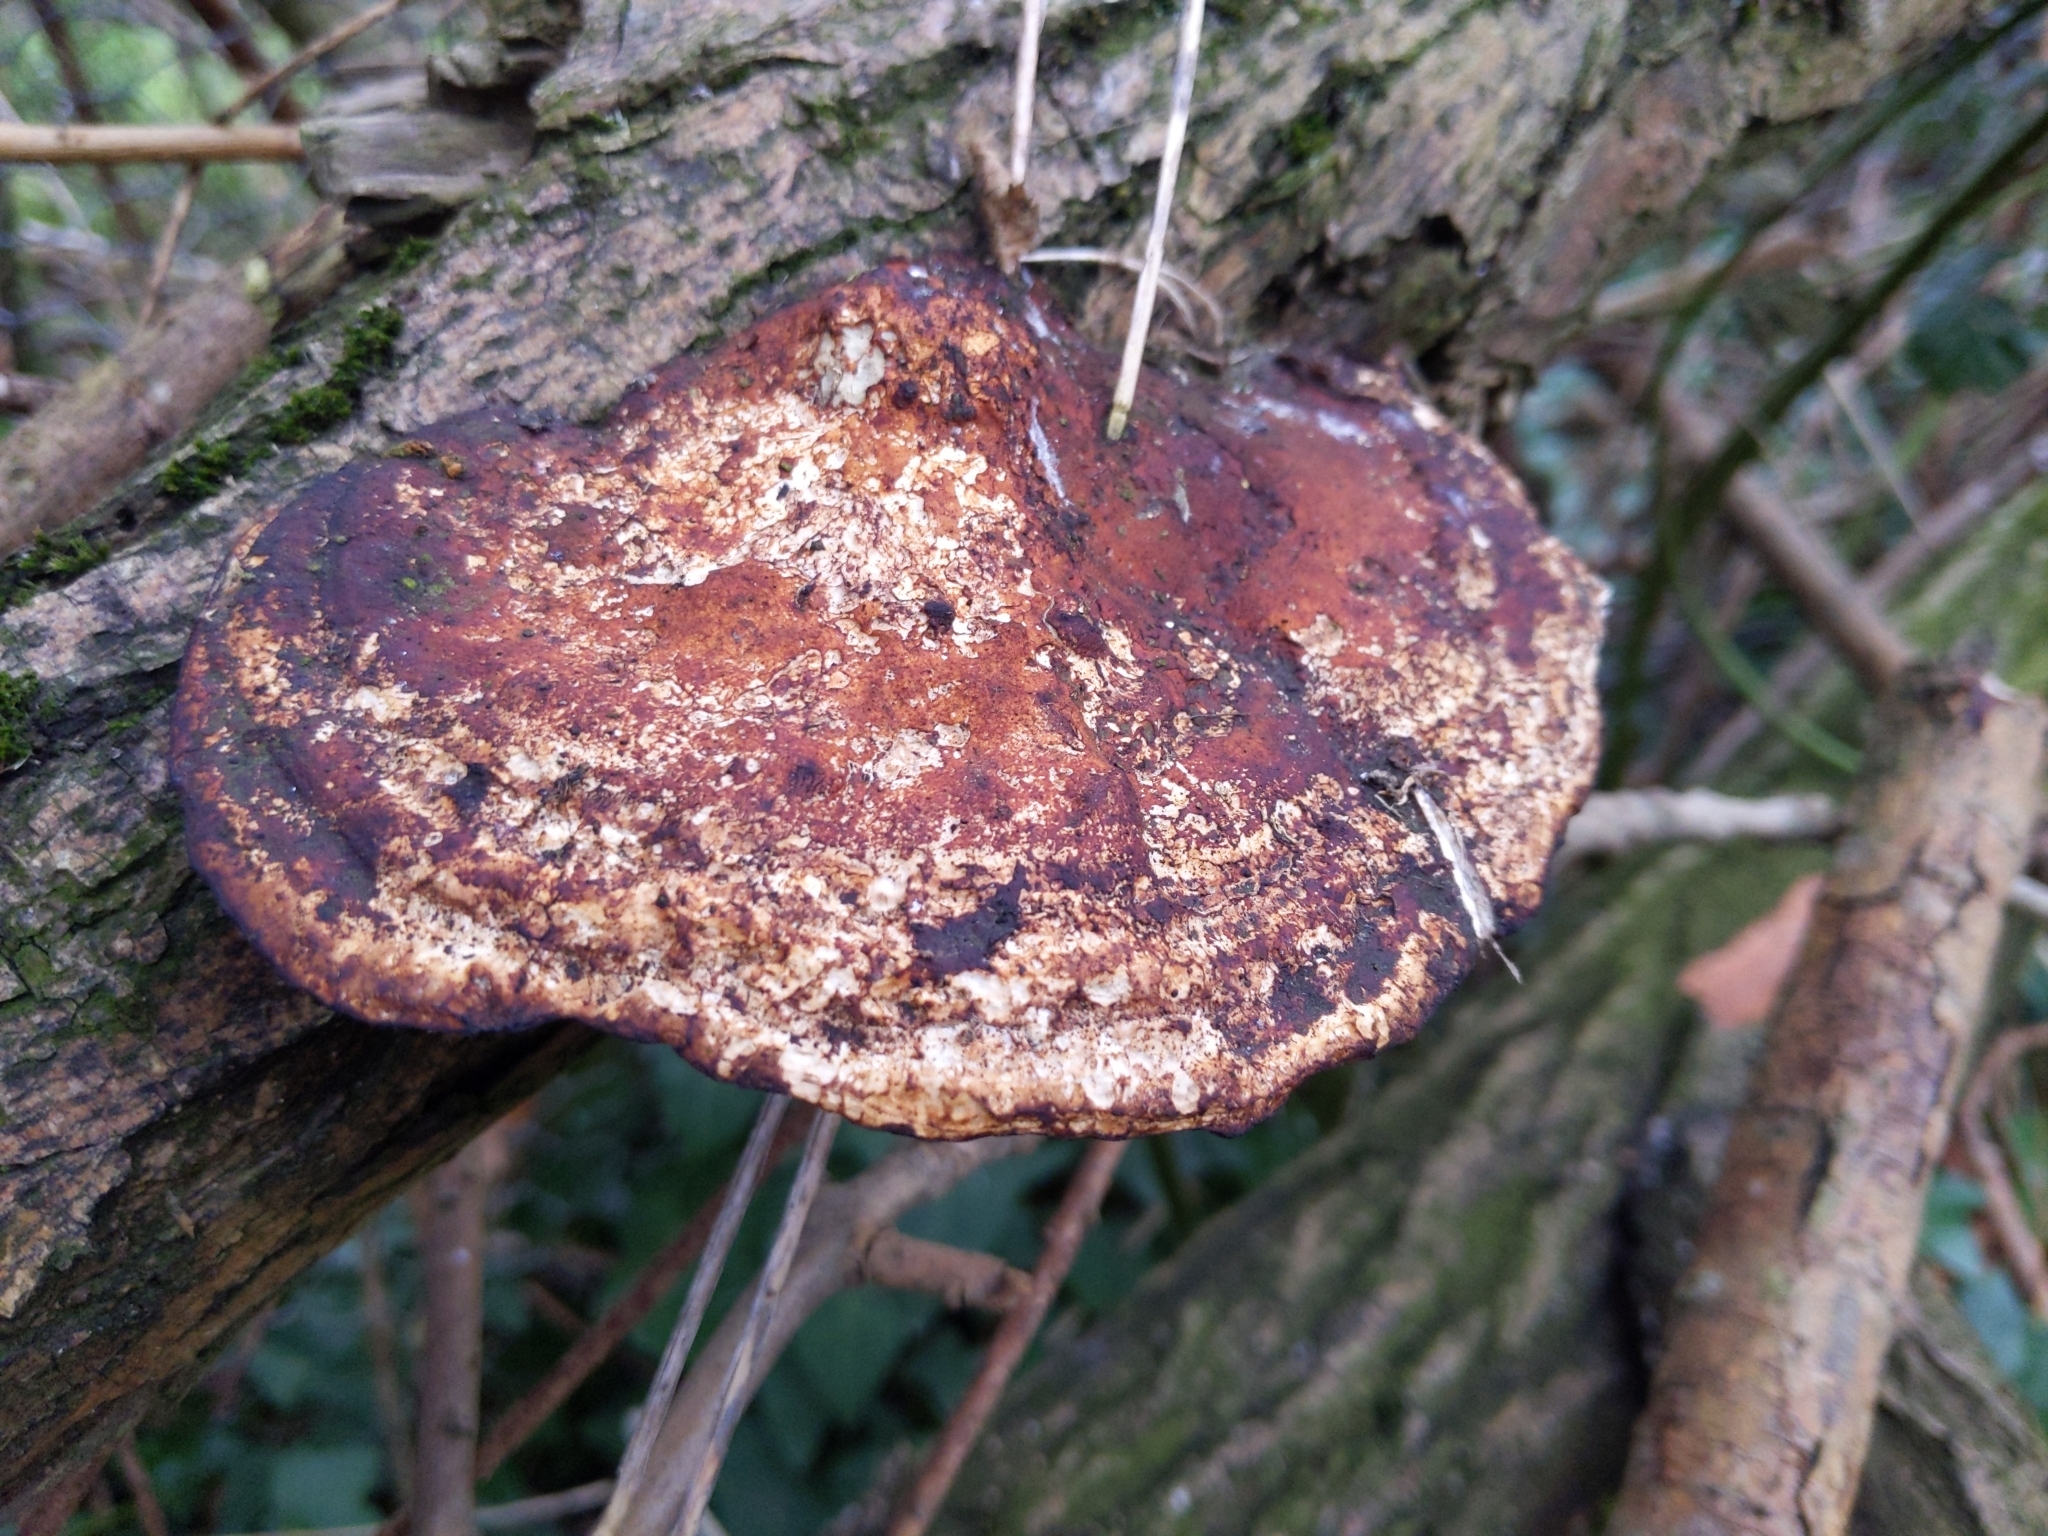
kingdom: Fungi
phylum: Basidiomycota
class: Agaricomycetes
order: Polyporales
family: Polyporaceae
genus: Daedaleopsis
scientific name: Daedaleopsis confragosa
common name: Blushing bracket
